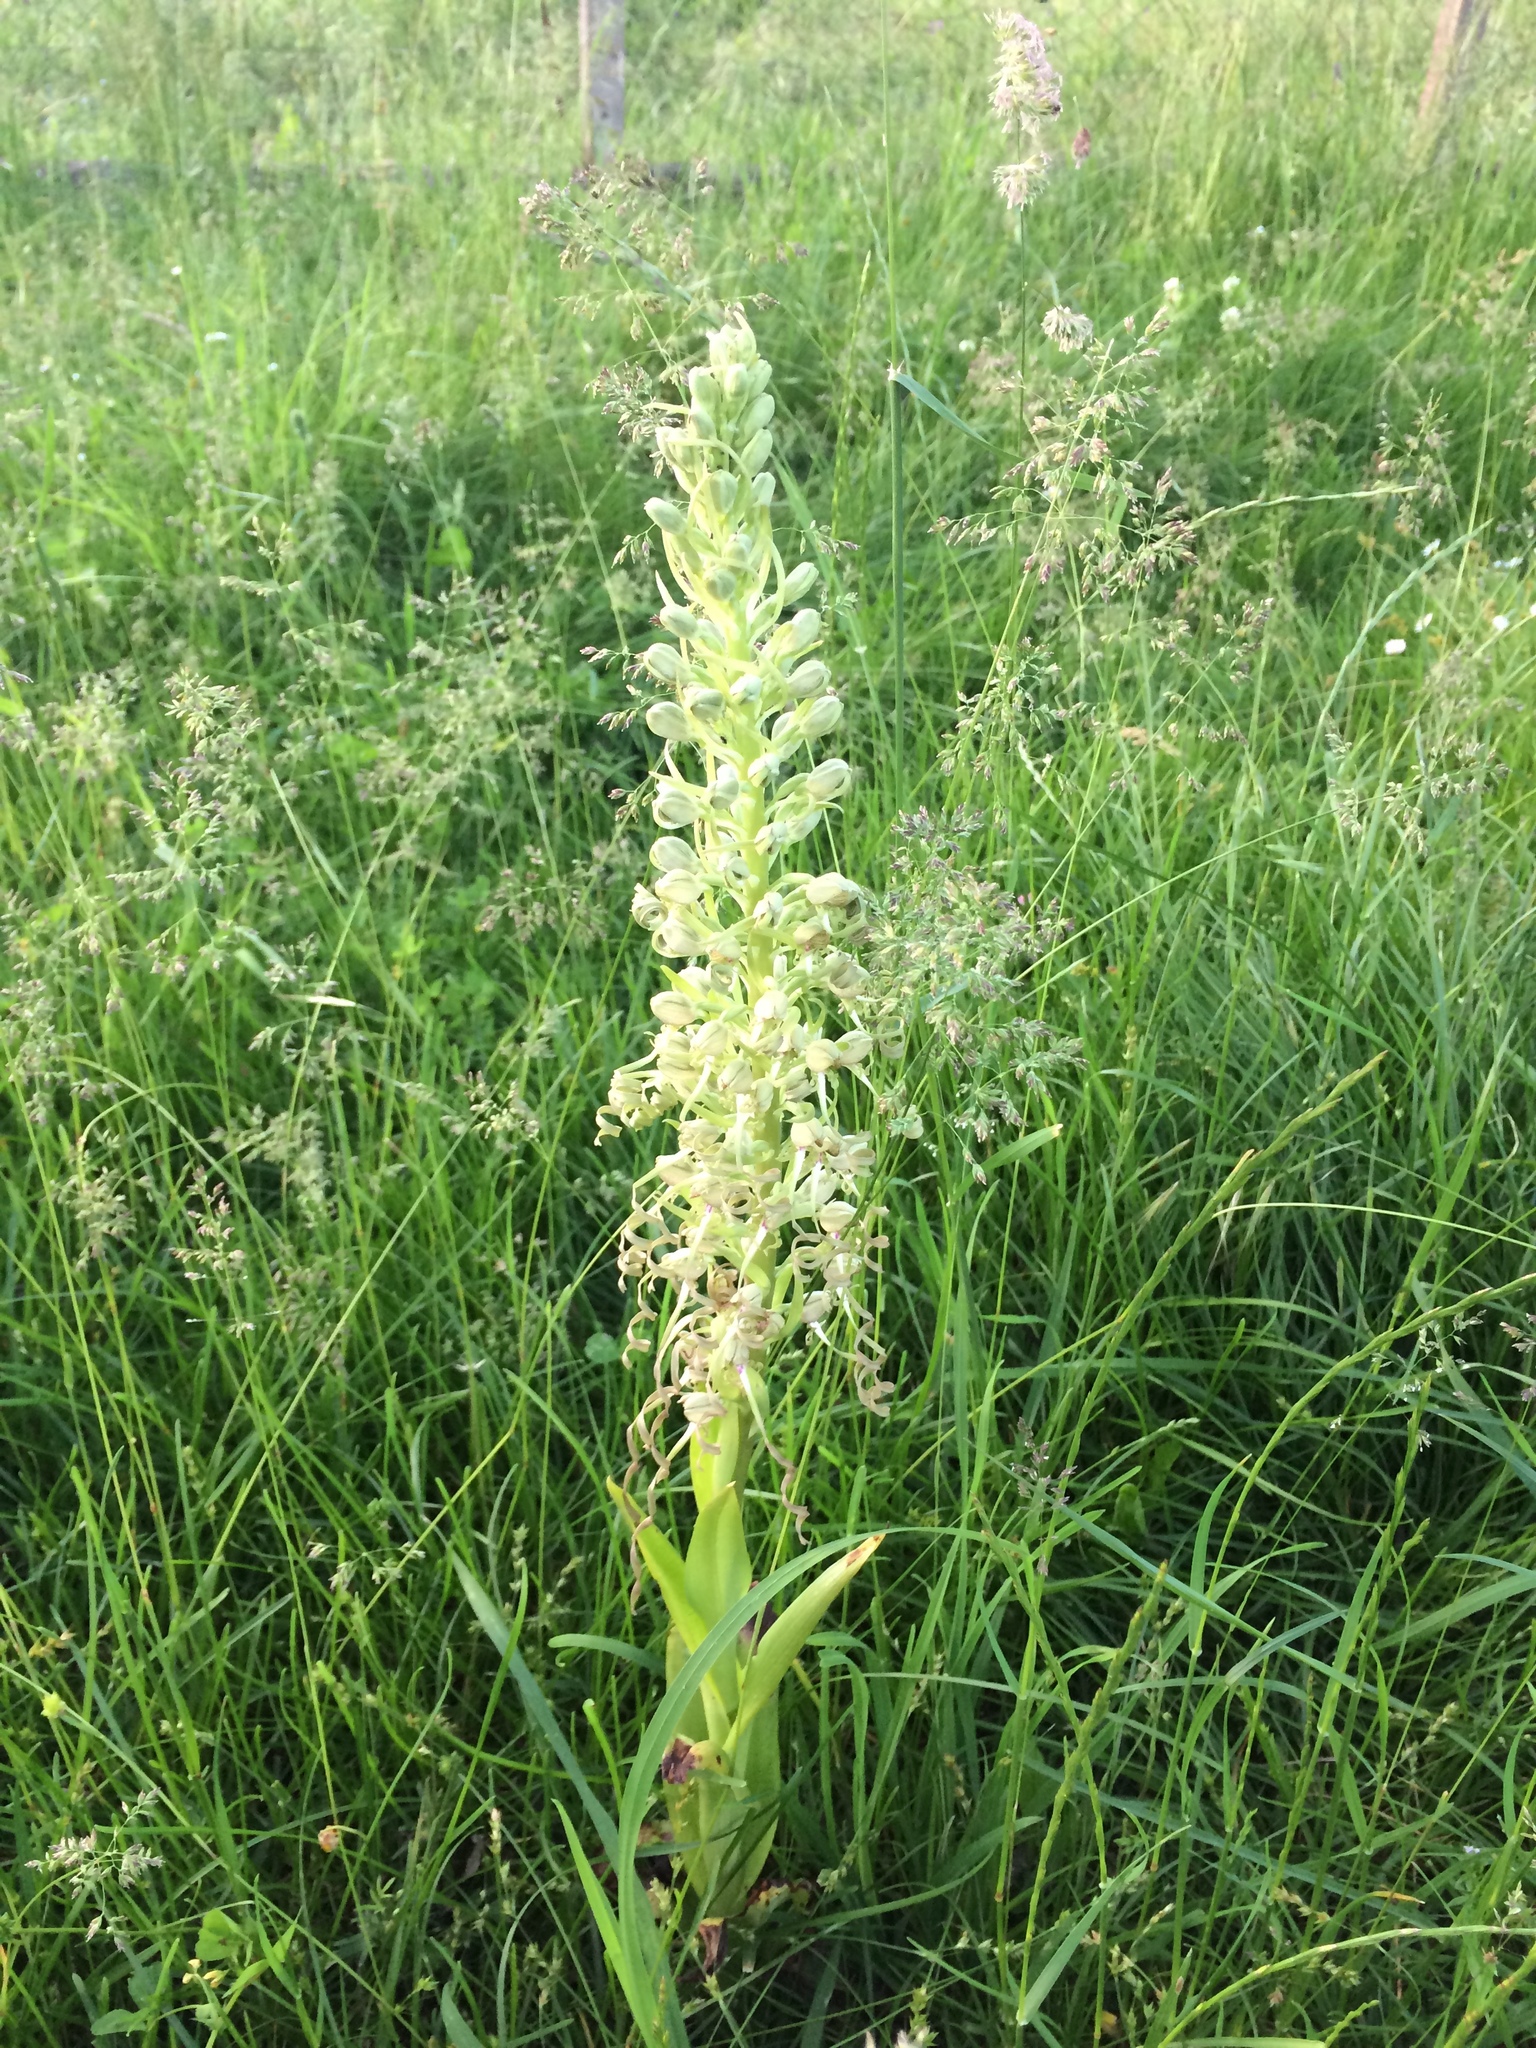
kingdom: Plantae
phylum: Tracheophyta
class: Liliopsida
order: Asparagales
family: Orchidaceae
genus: Himantoglossum
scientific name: Himantoglossum hircinum
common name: Lizard orchid
